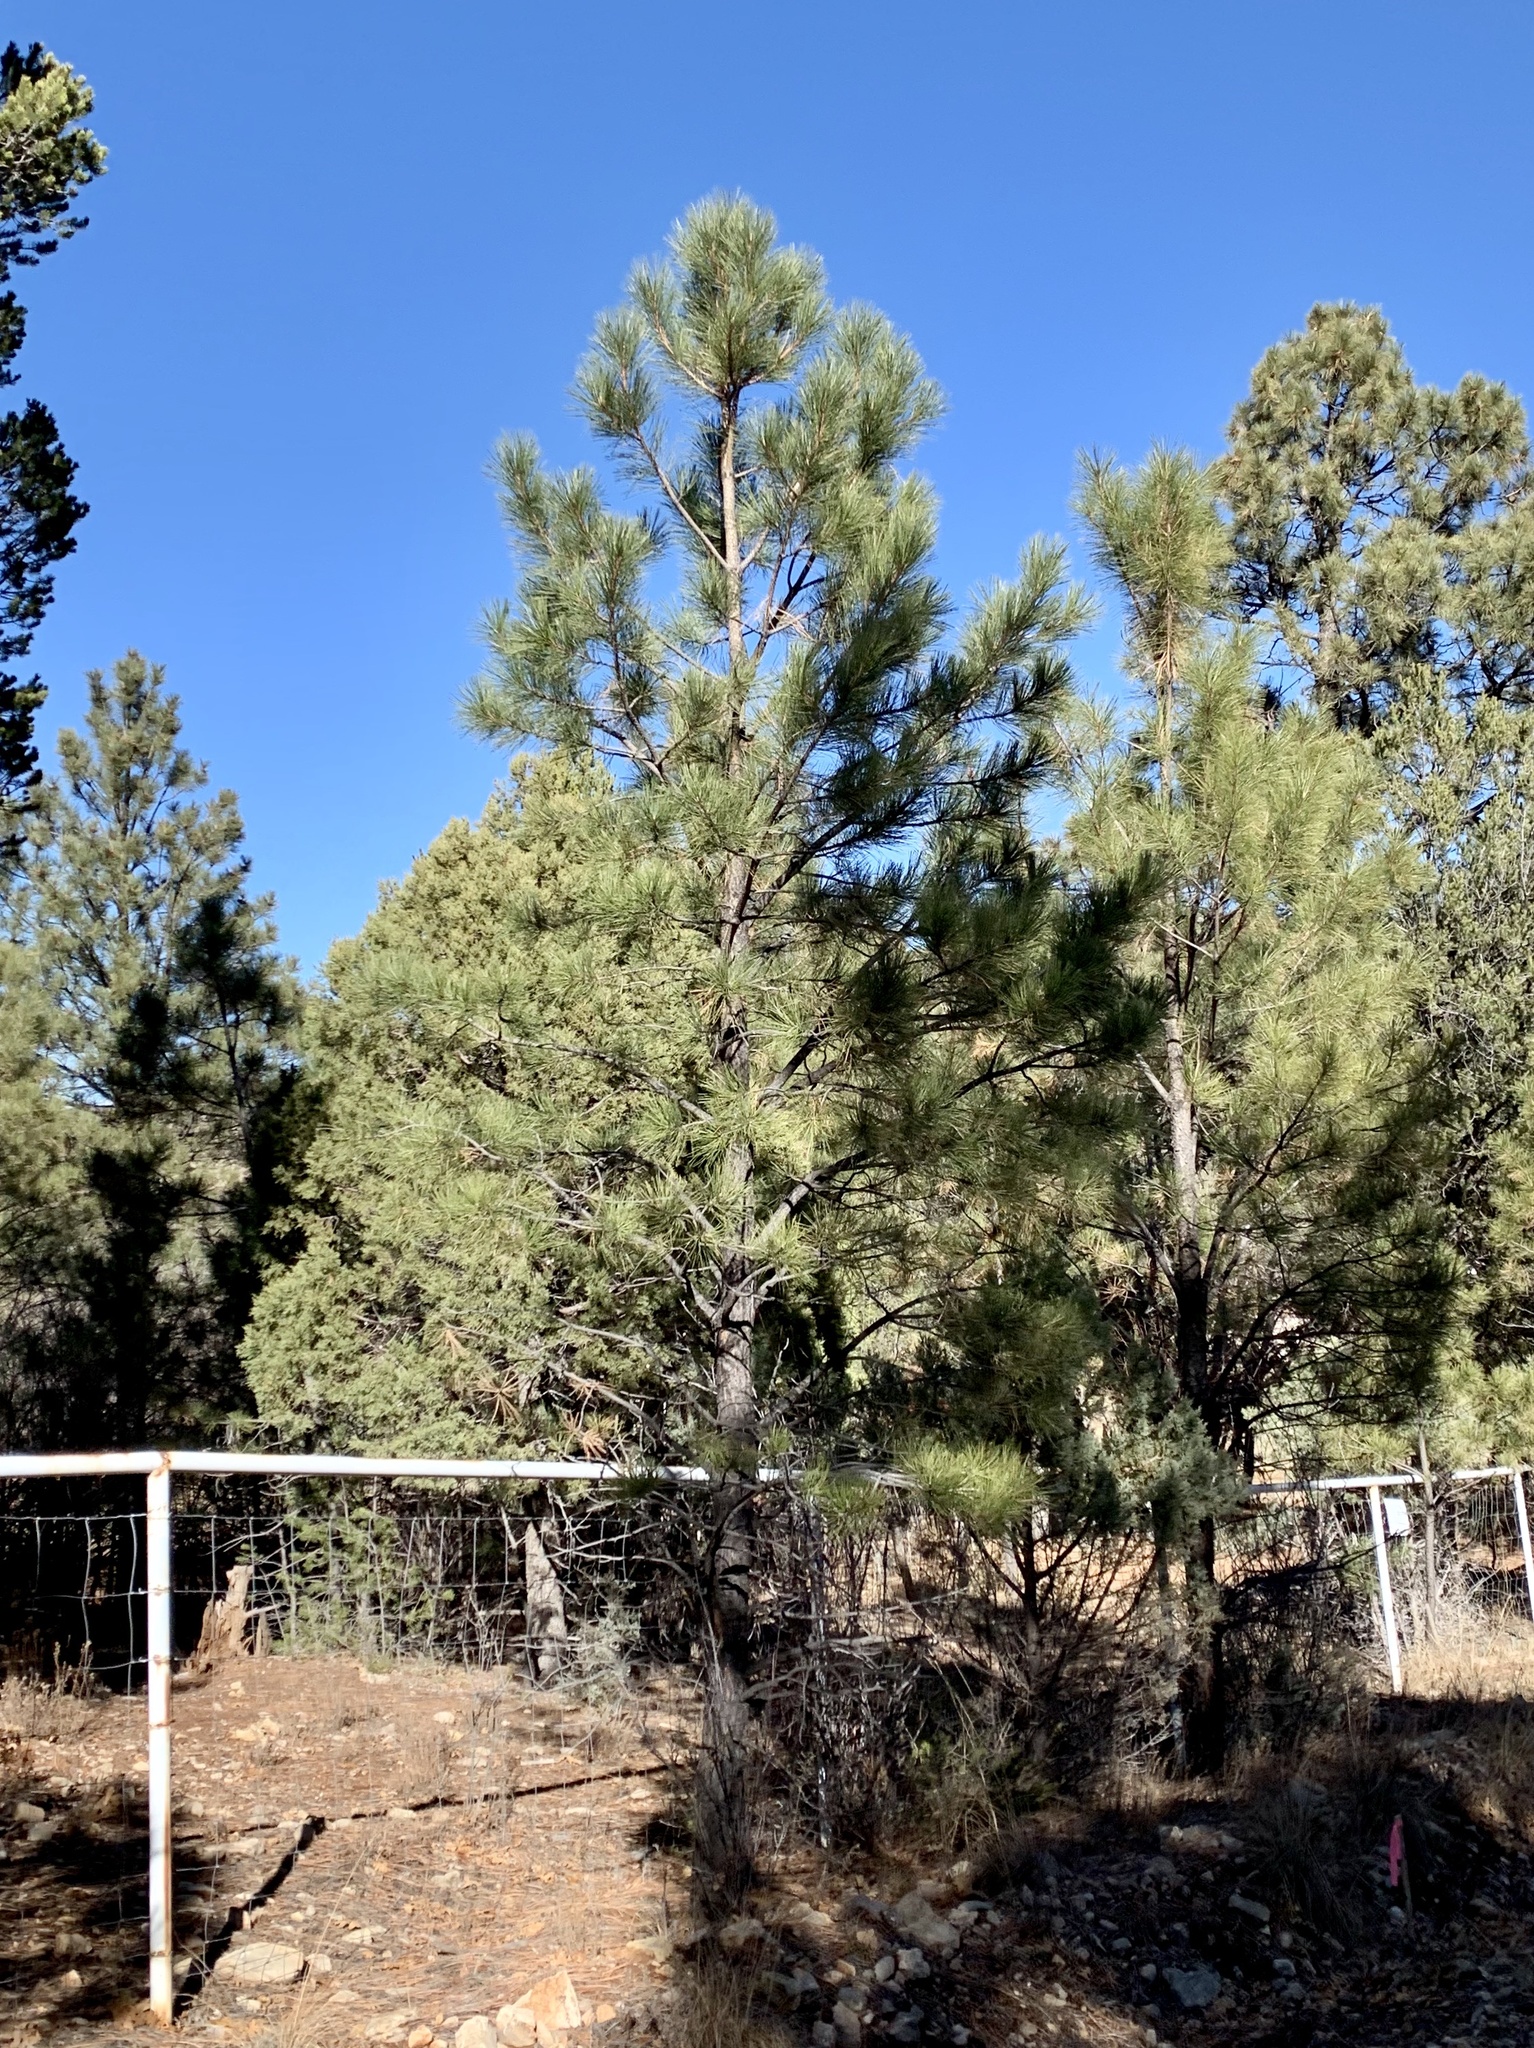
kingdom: Plantae
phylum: Tracheophyta
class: Pinopsida
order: Pinales
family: Pinaceae
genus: Pinus
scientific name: Pinus ponderosa
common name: Western yellow-pine
